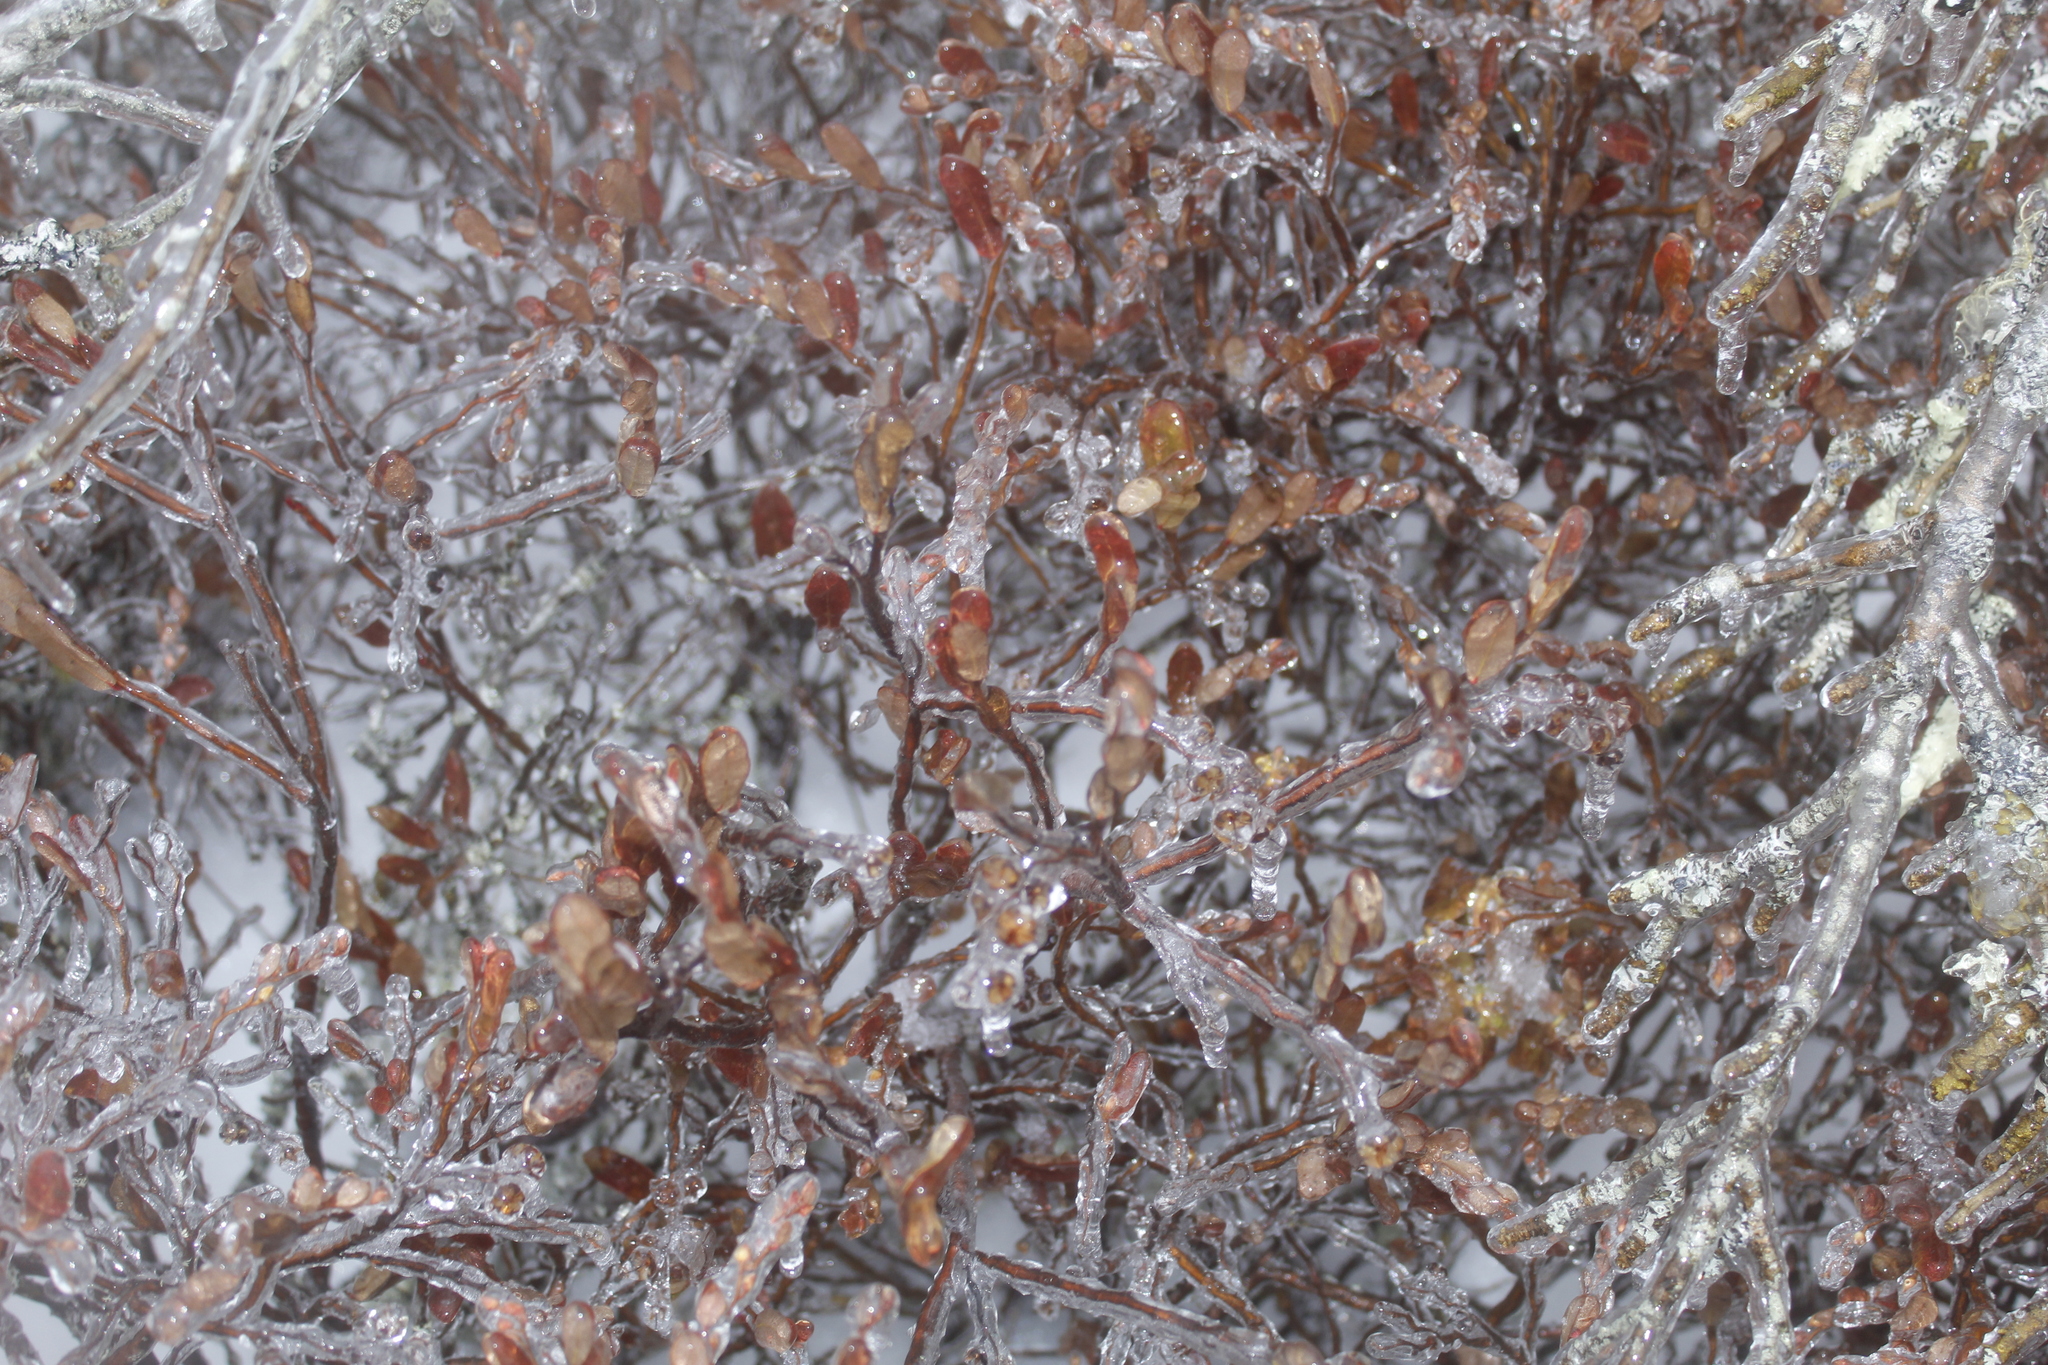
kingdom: Plantae
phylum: Tracheophyta
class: Magnoliopsida
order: Ericales
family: Ericaceae
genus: Chamaedaphne
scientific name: Chamaedaphne calyculata
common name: Leatherleaf
